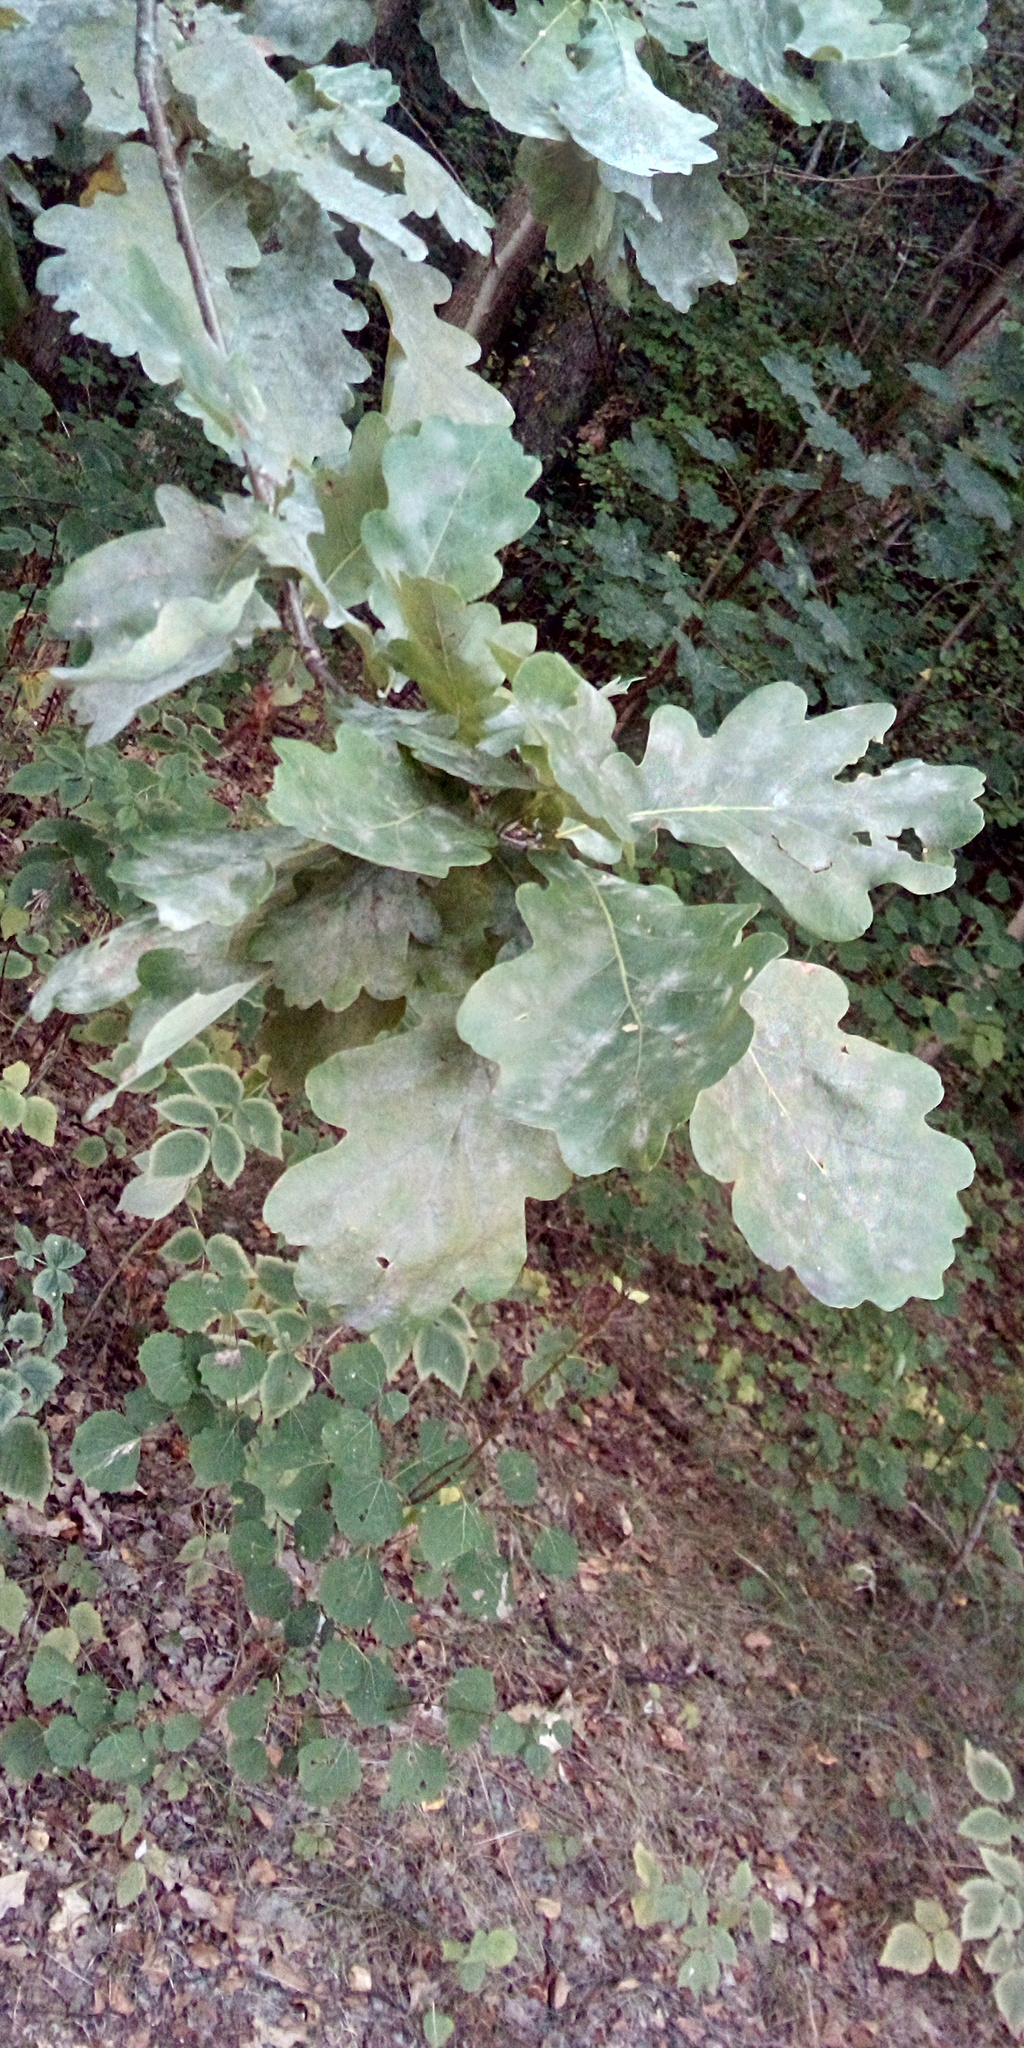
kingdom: Plantae
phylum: Tracheophyta
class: Magnoliopsida
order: Fagales
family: Fagaceae
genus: Quercus
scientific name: Quercus robur
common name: Pedunculate oak
